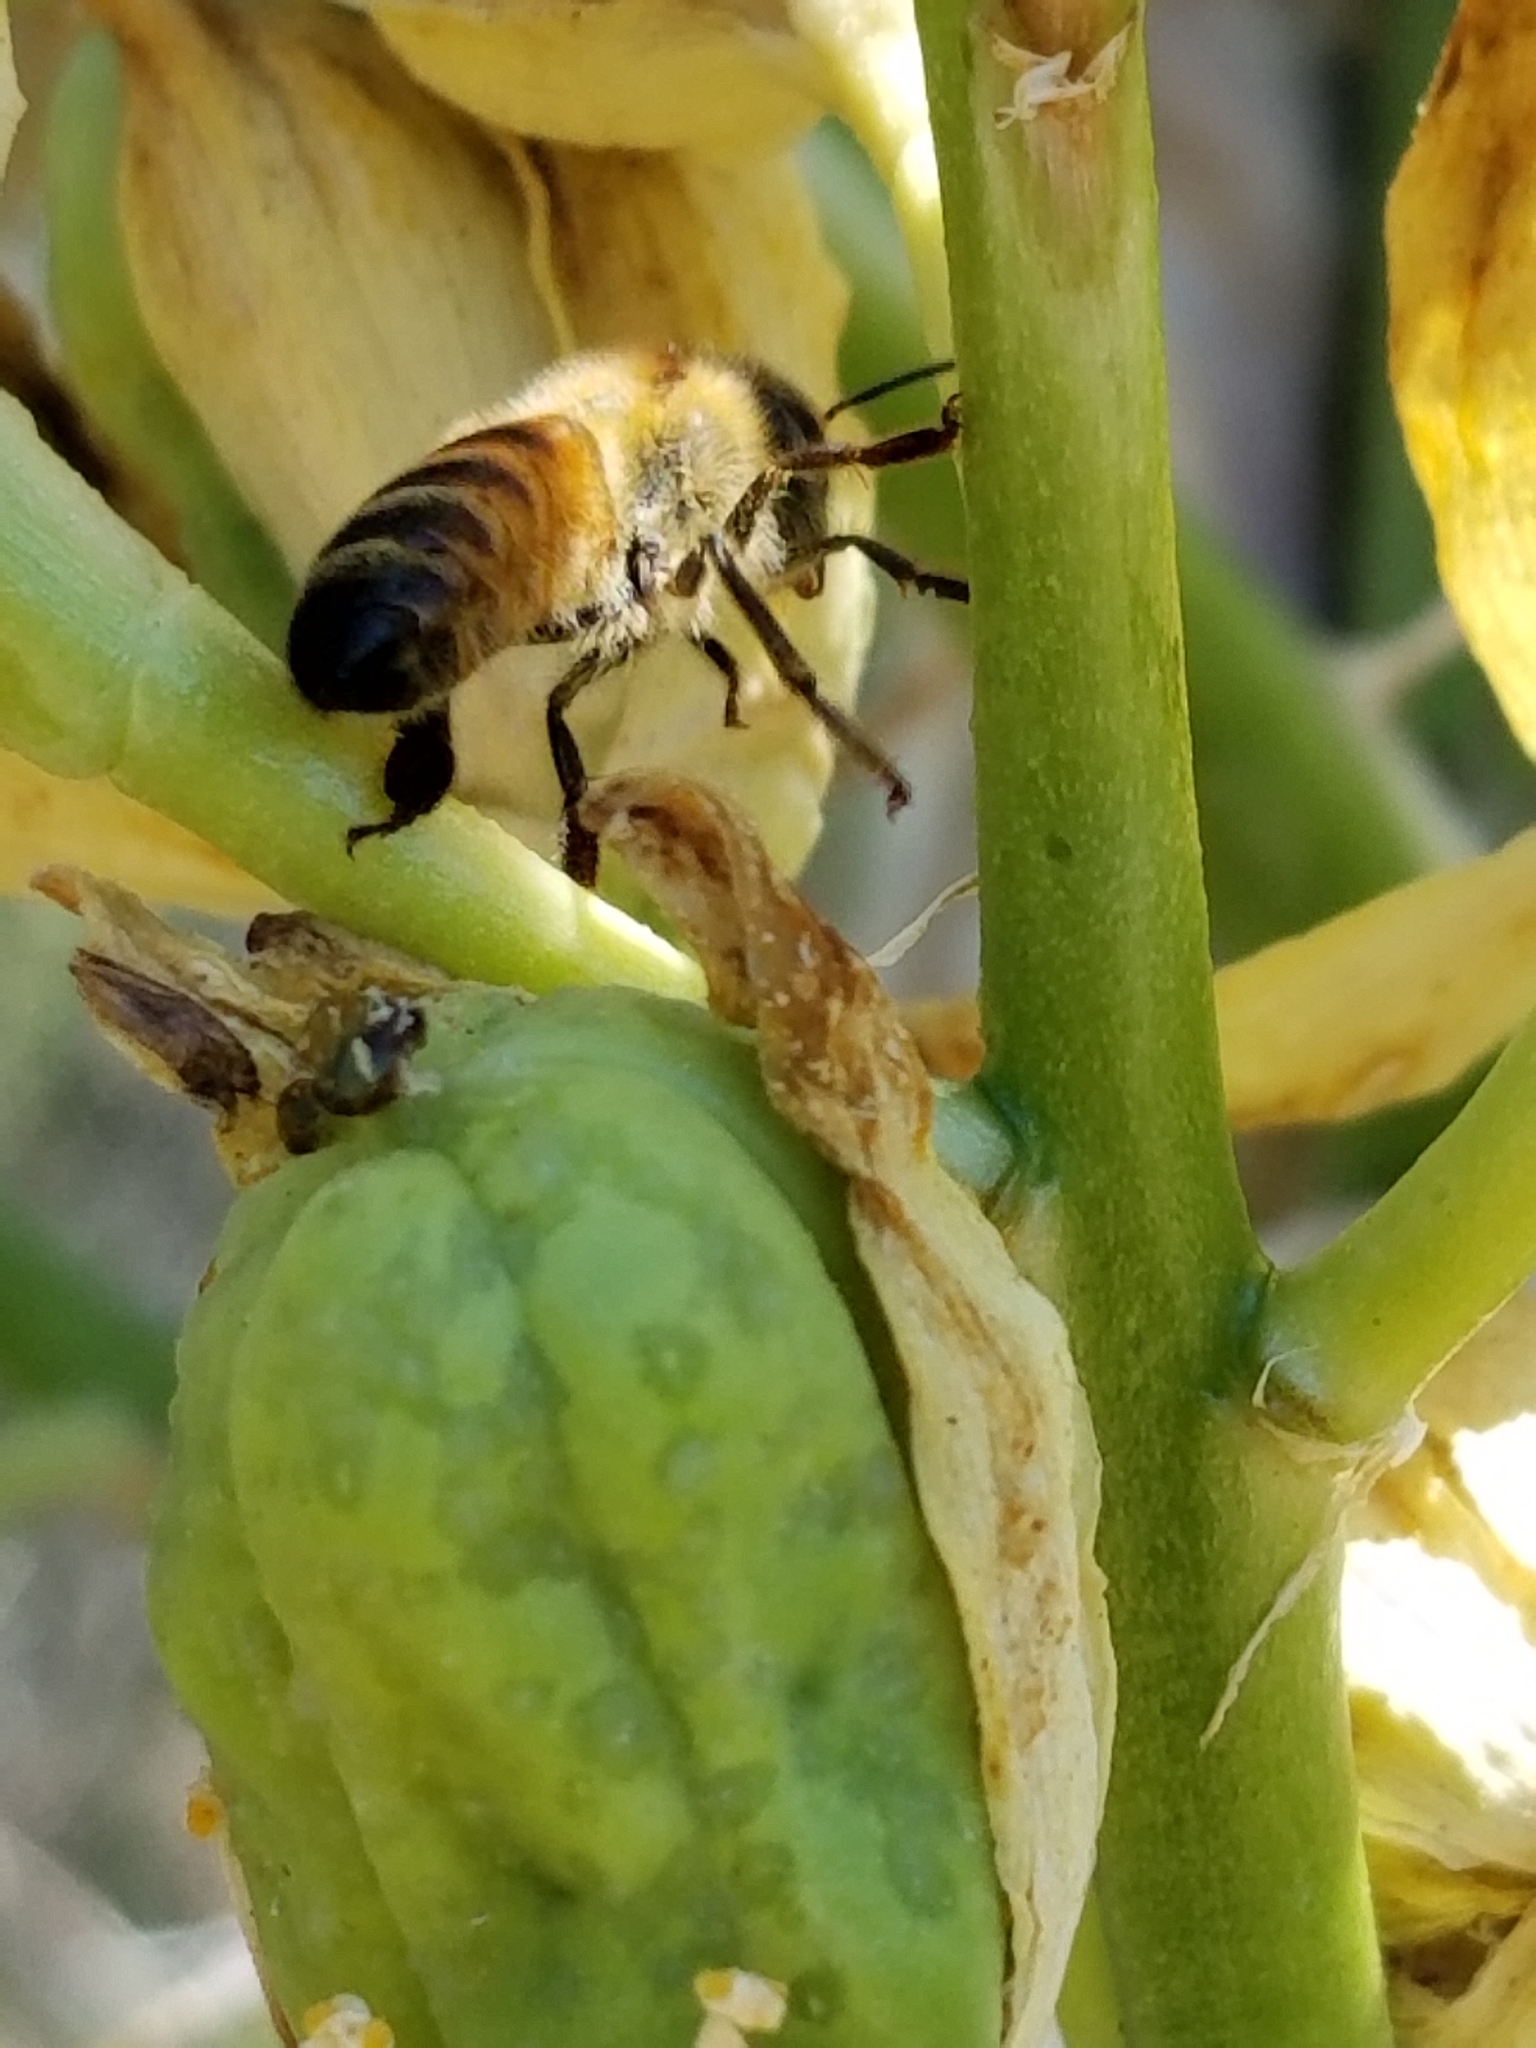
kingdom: Animalia
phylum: Arthropoda
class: Insecta
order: Hymenoptera
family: Apidae
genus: Apis
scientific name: Apis mellifera
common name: Honey bee
